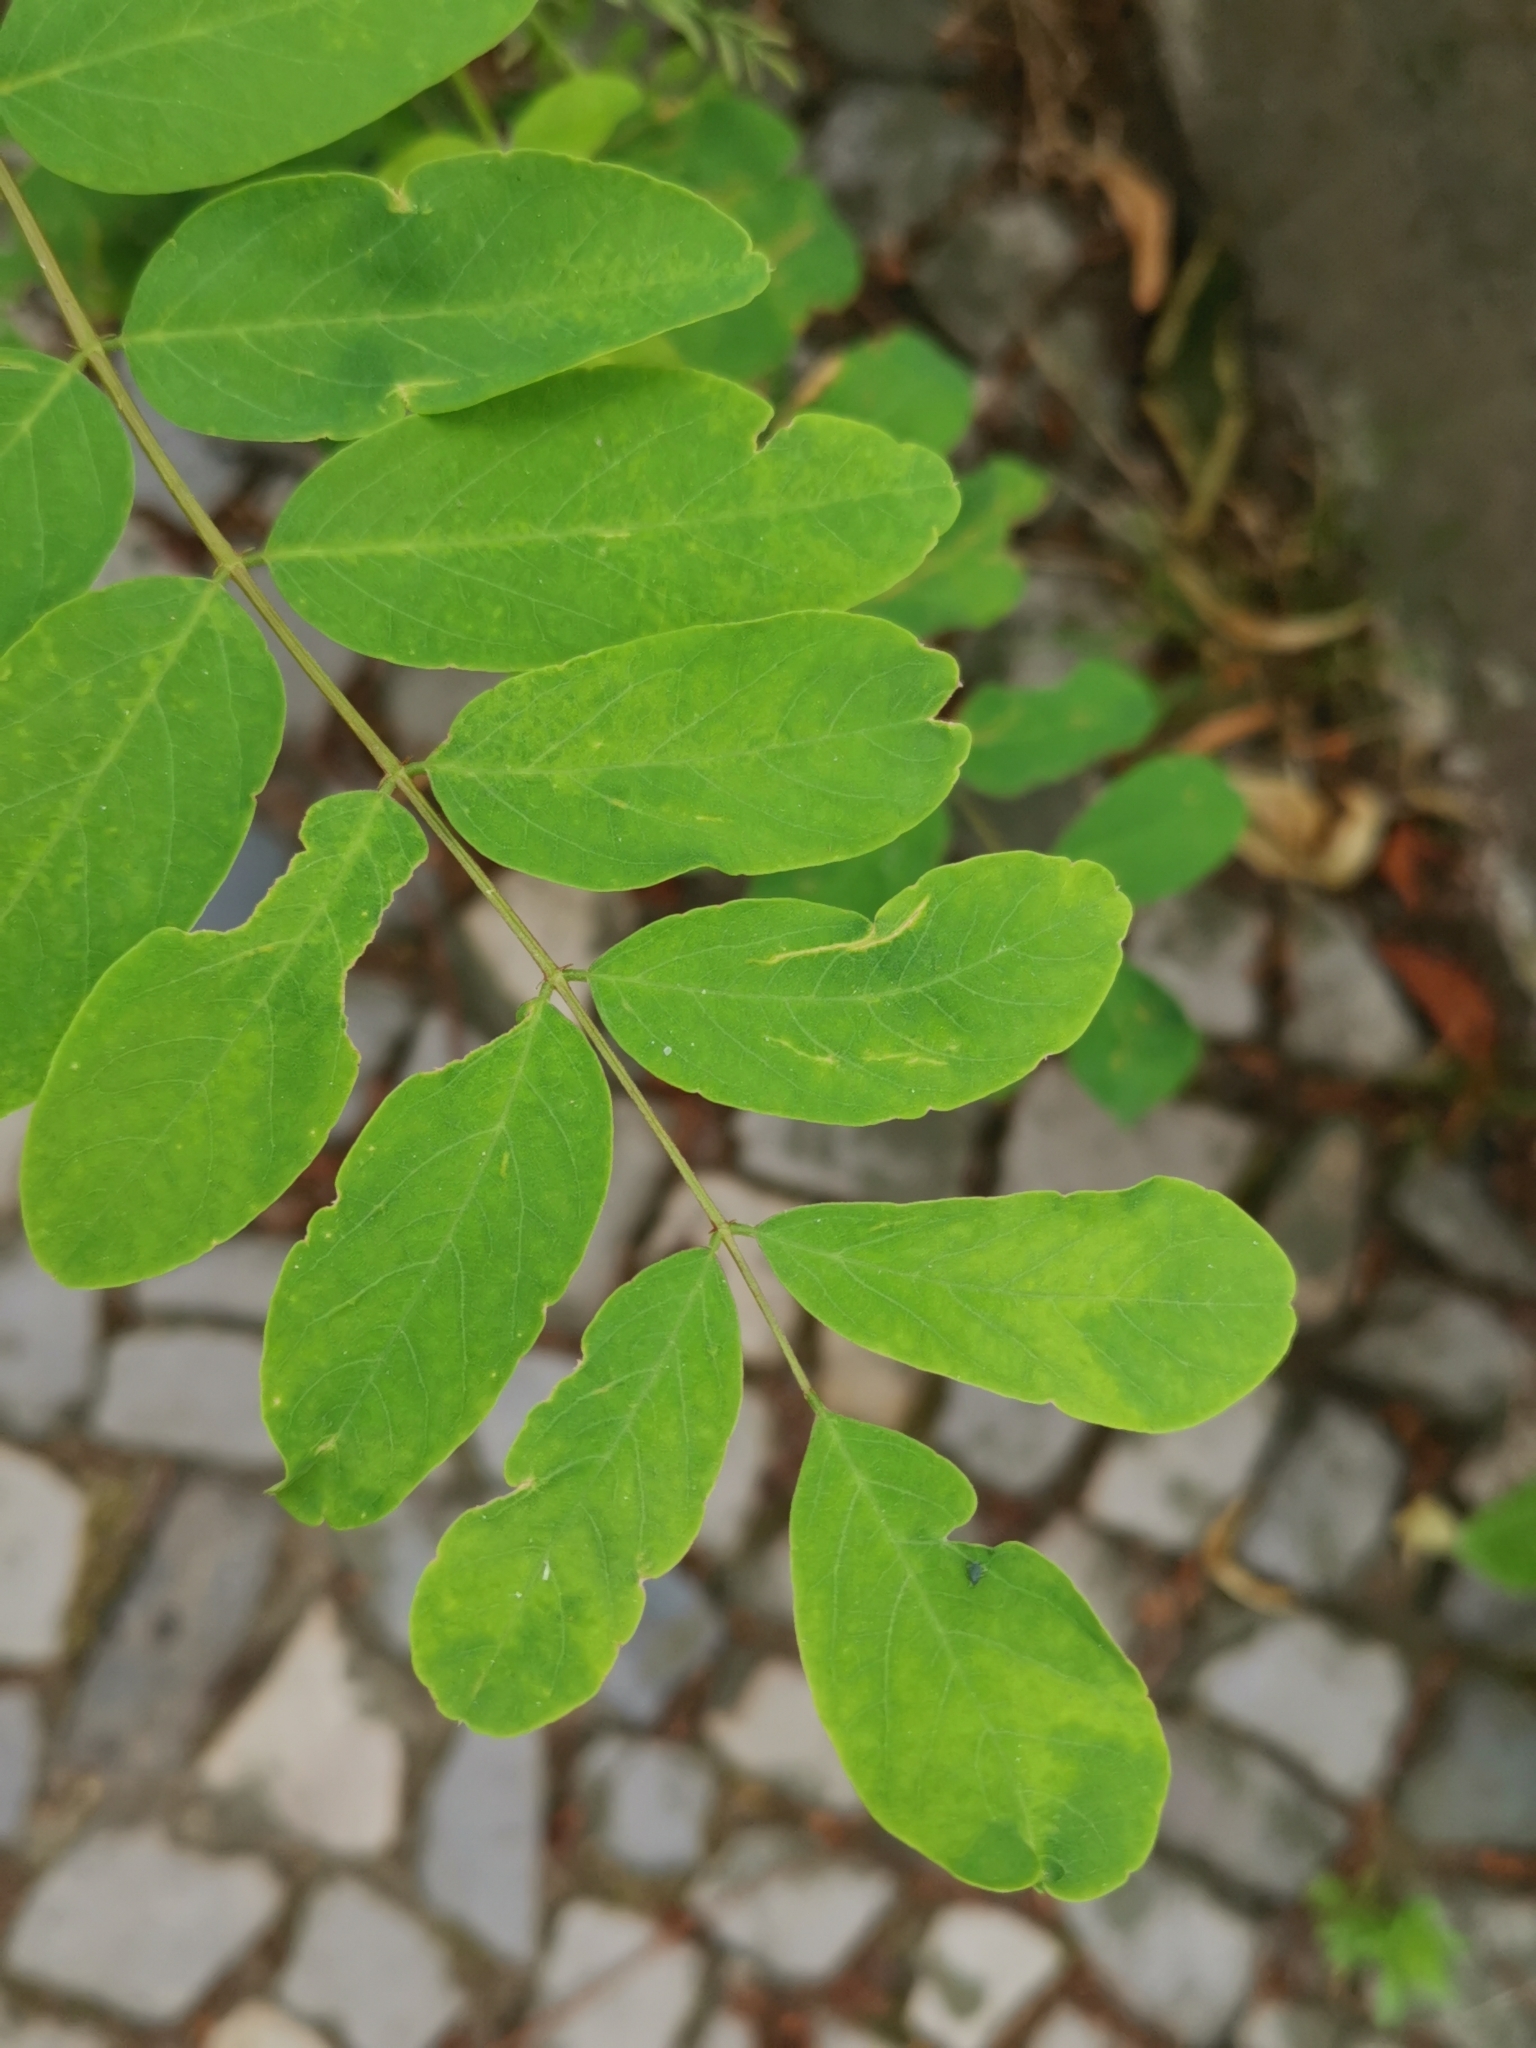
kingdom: Plantae
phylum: Tracheophyta
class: Magnoliopsida
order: Fabales
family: Fabaceae
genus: Robinia
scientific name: Robinia pseudoacacia
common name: Black locust
